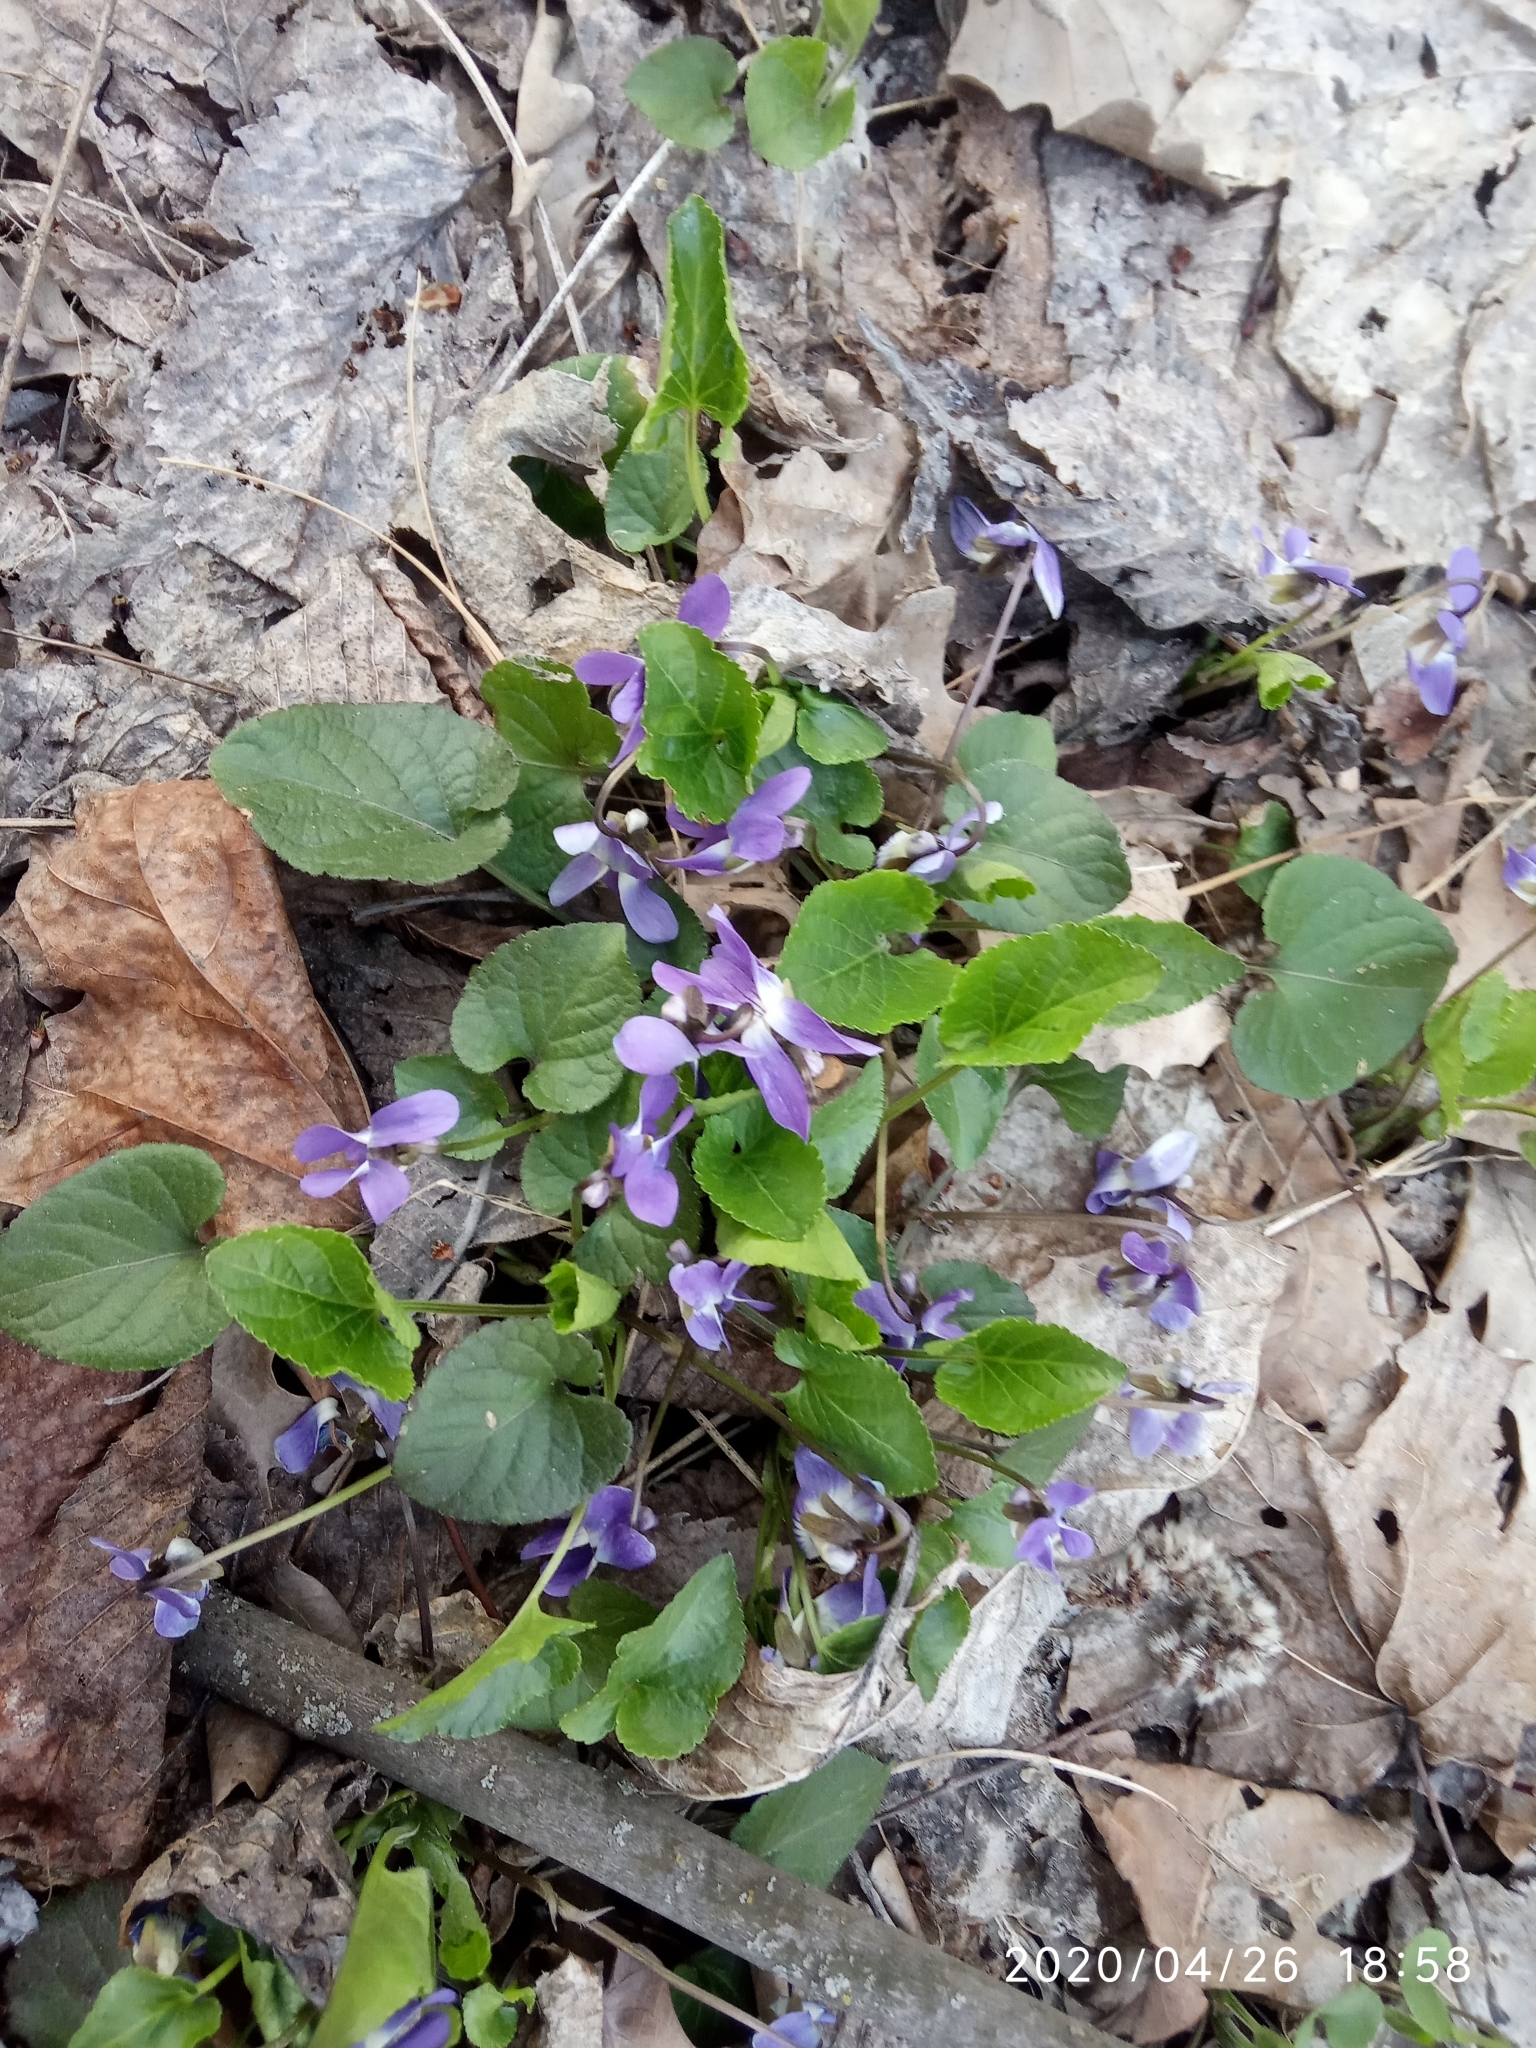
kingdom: Plantae
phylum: Tracheophyta
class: Magnoliopsida
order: Malpighiales
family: Violaceae
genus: Viola
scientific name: Viola suavis
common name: Russian violet
